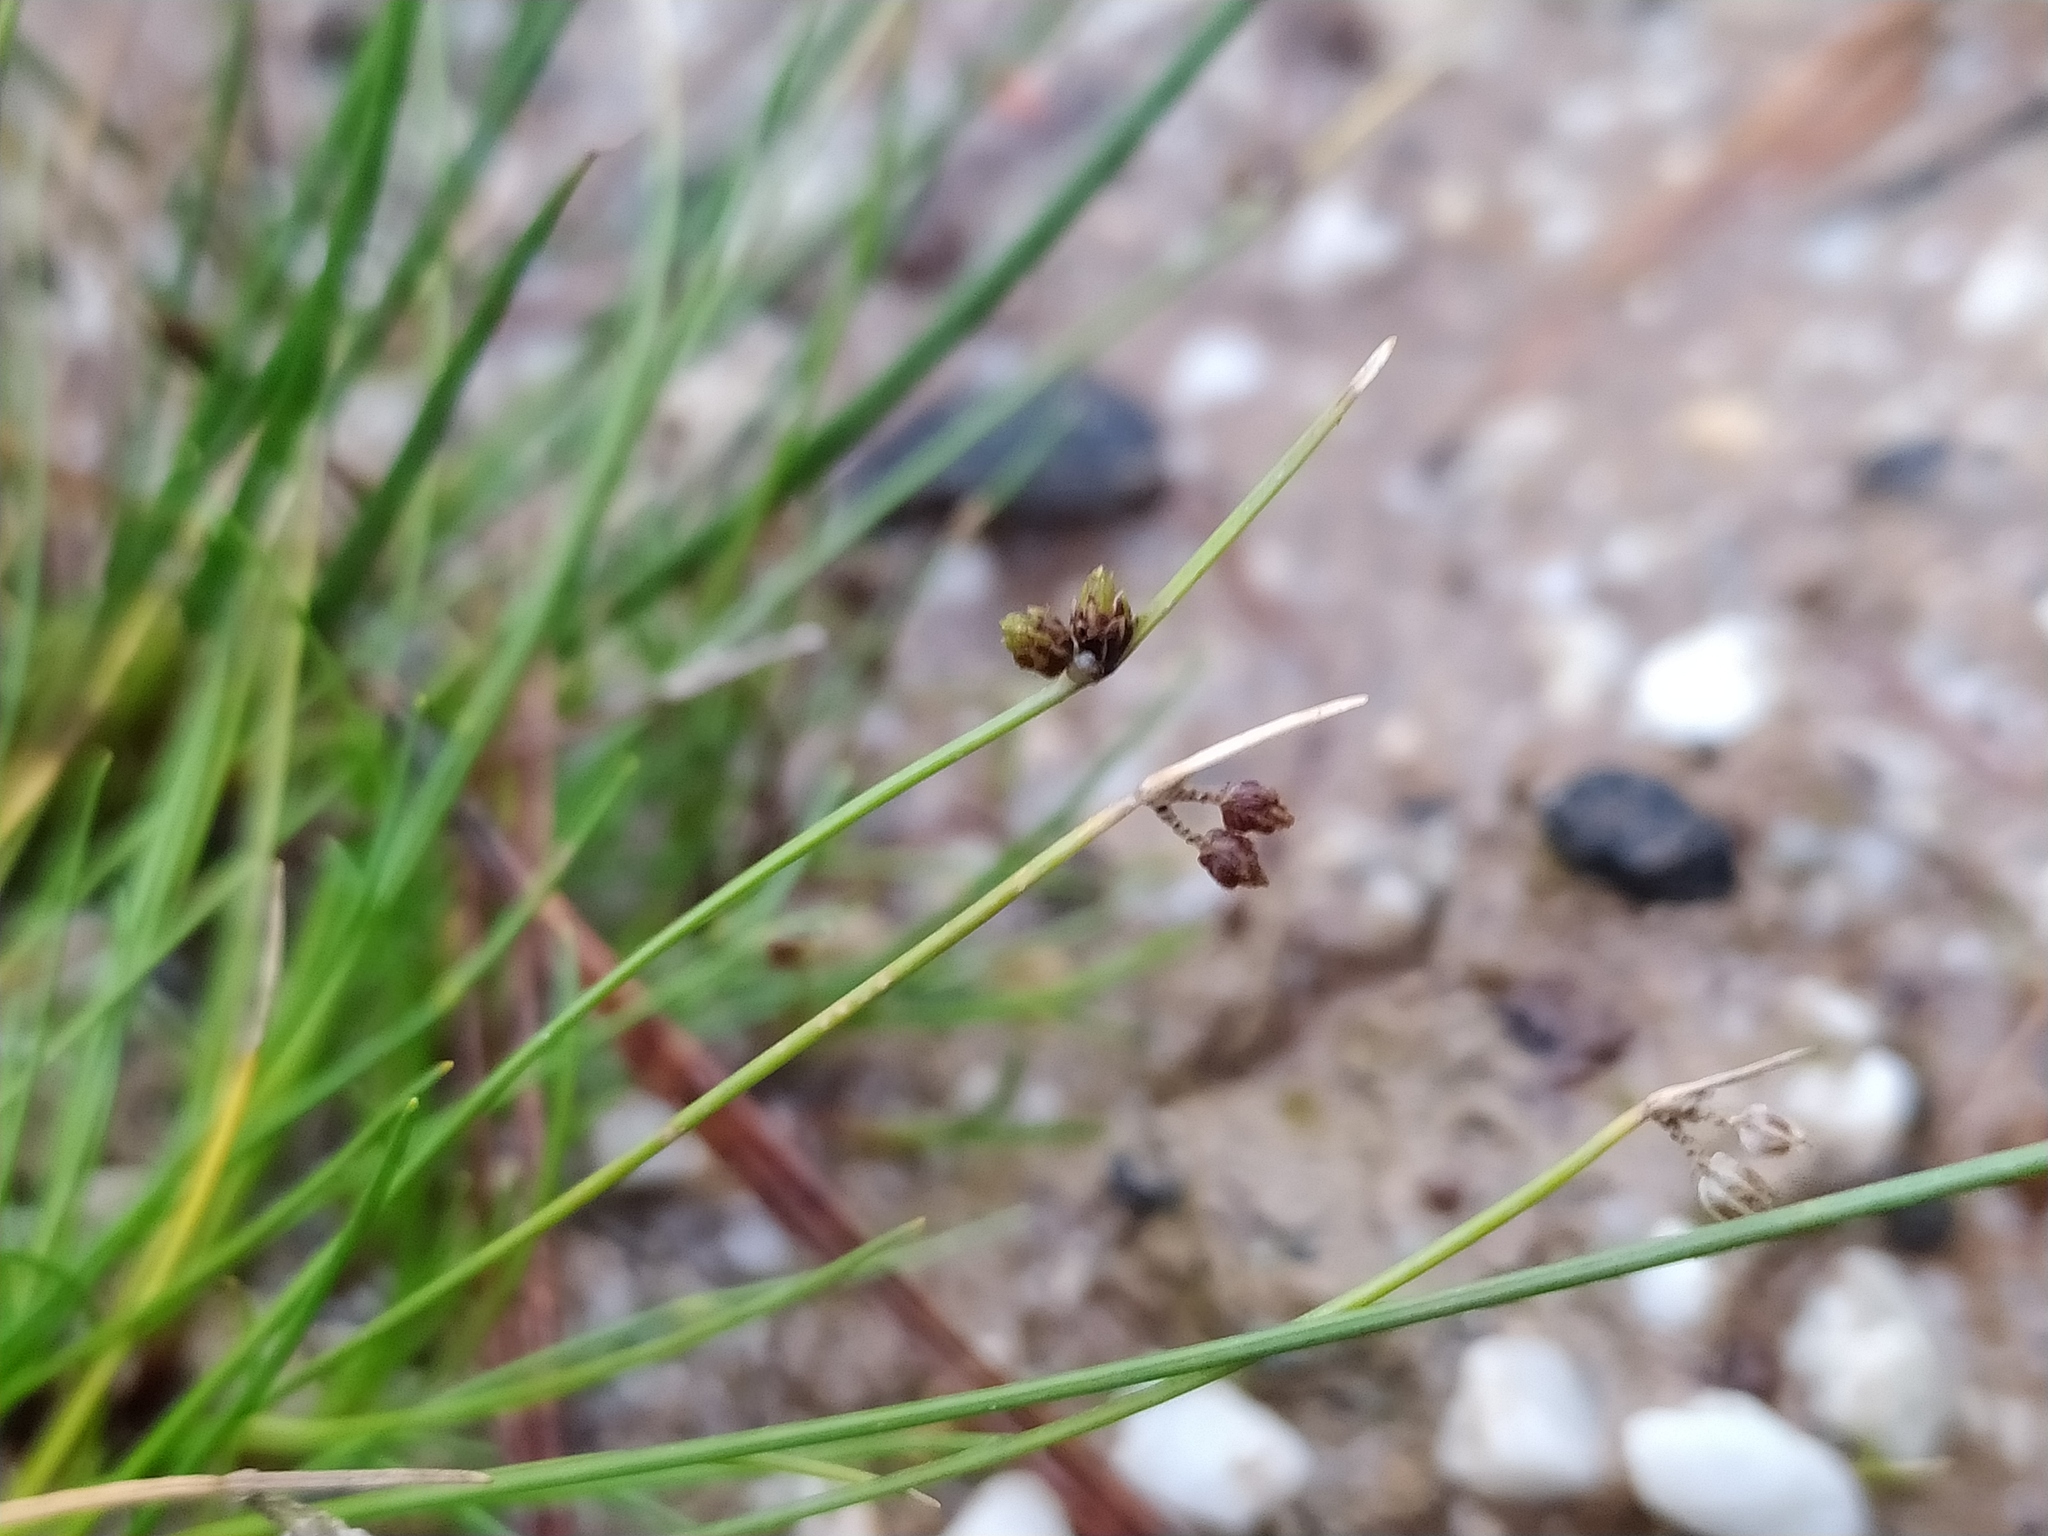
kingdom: Plantae
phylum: Tracheophyta
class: Liliopsida
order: Poales
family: Cyperaceae
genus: Isolepis
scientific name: Isolepis setacea
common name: Bristle club-rush
